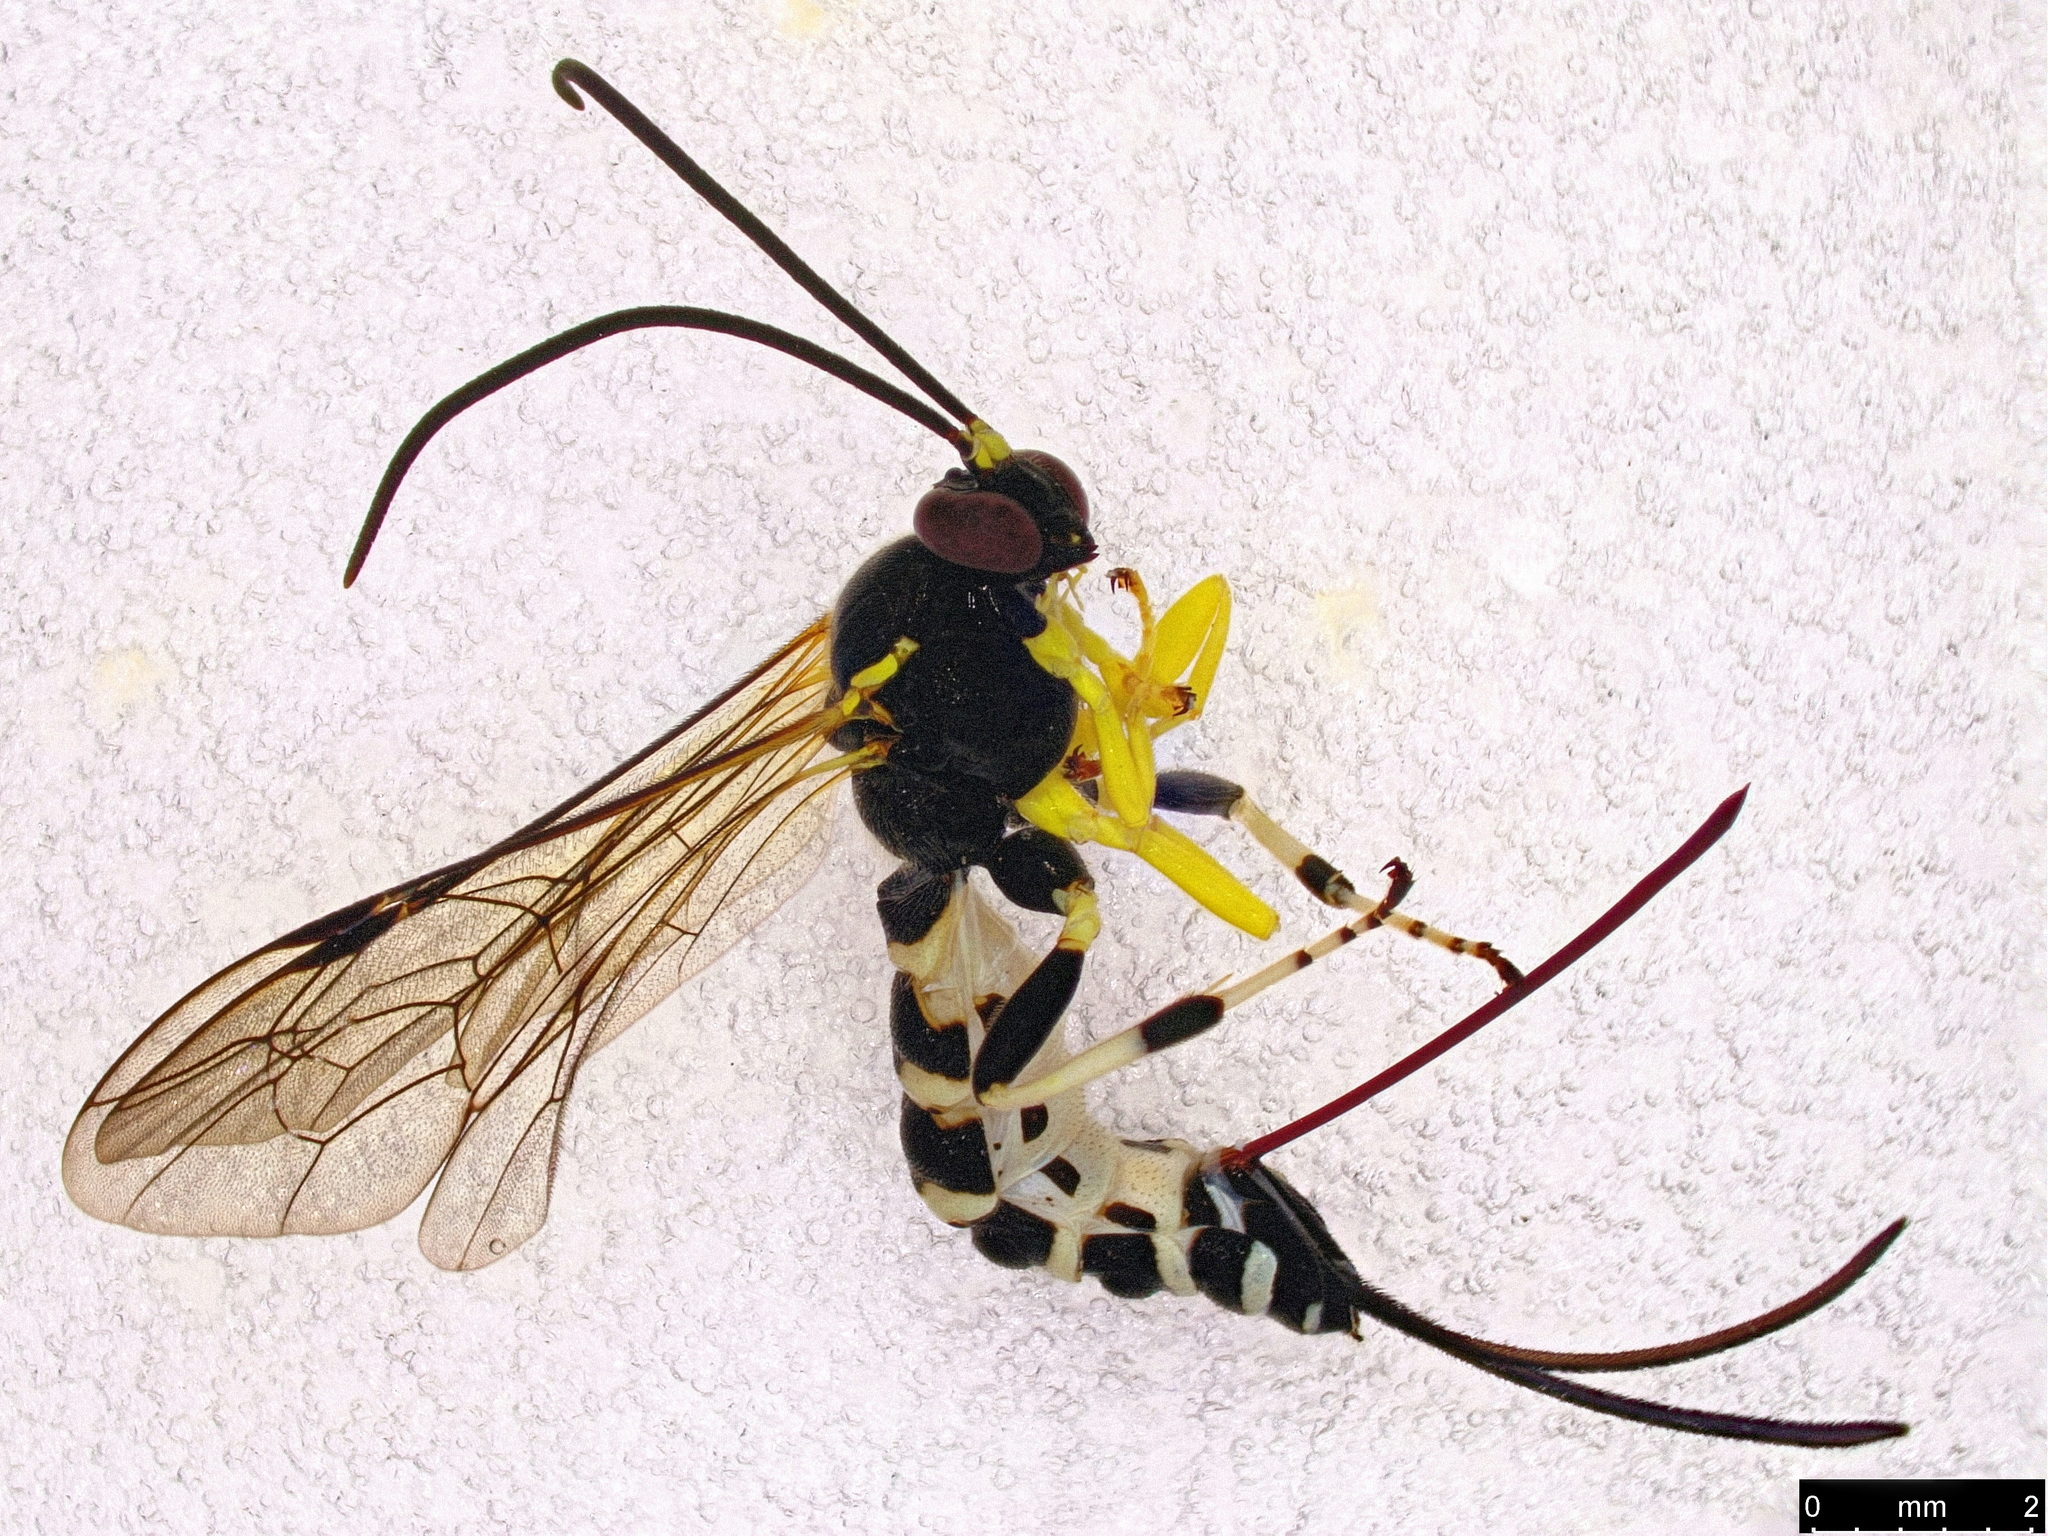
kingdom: Animalia
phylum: Arthropoda
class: Insecta
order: Hymenoptera
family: Ichneumonidae
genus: Sericopimpla
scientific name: Sericopimpla crenator
